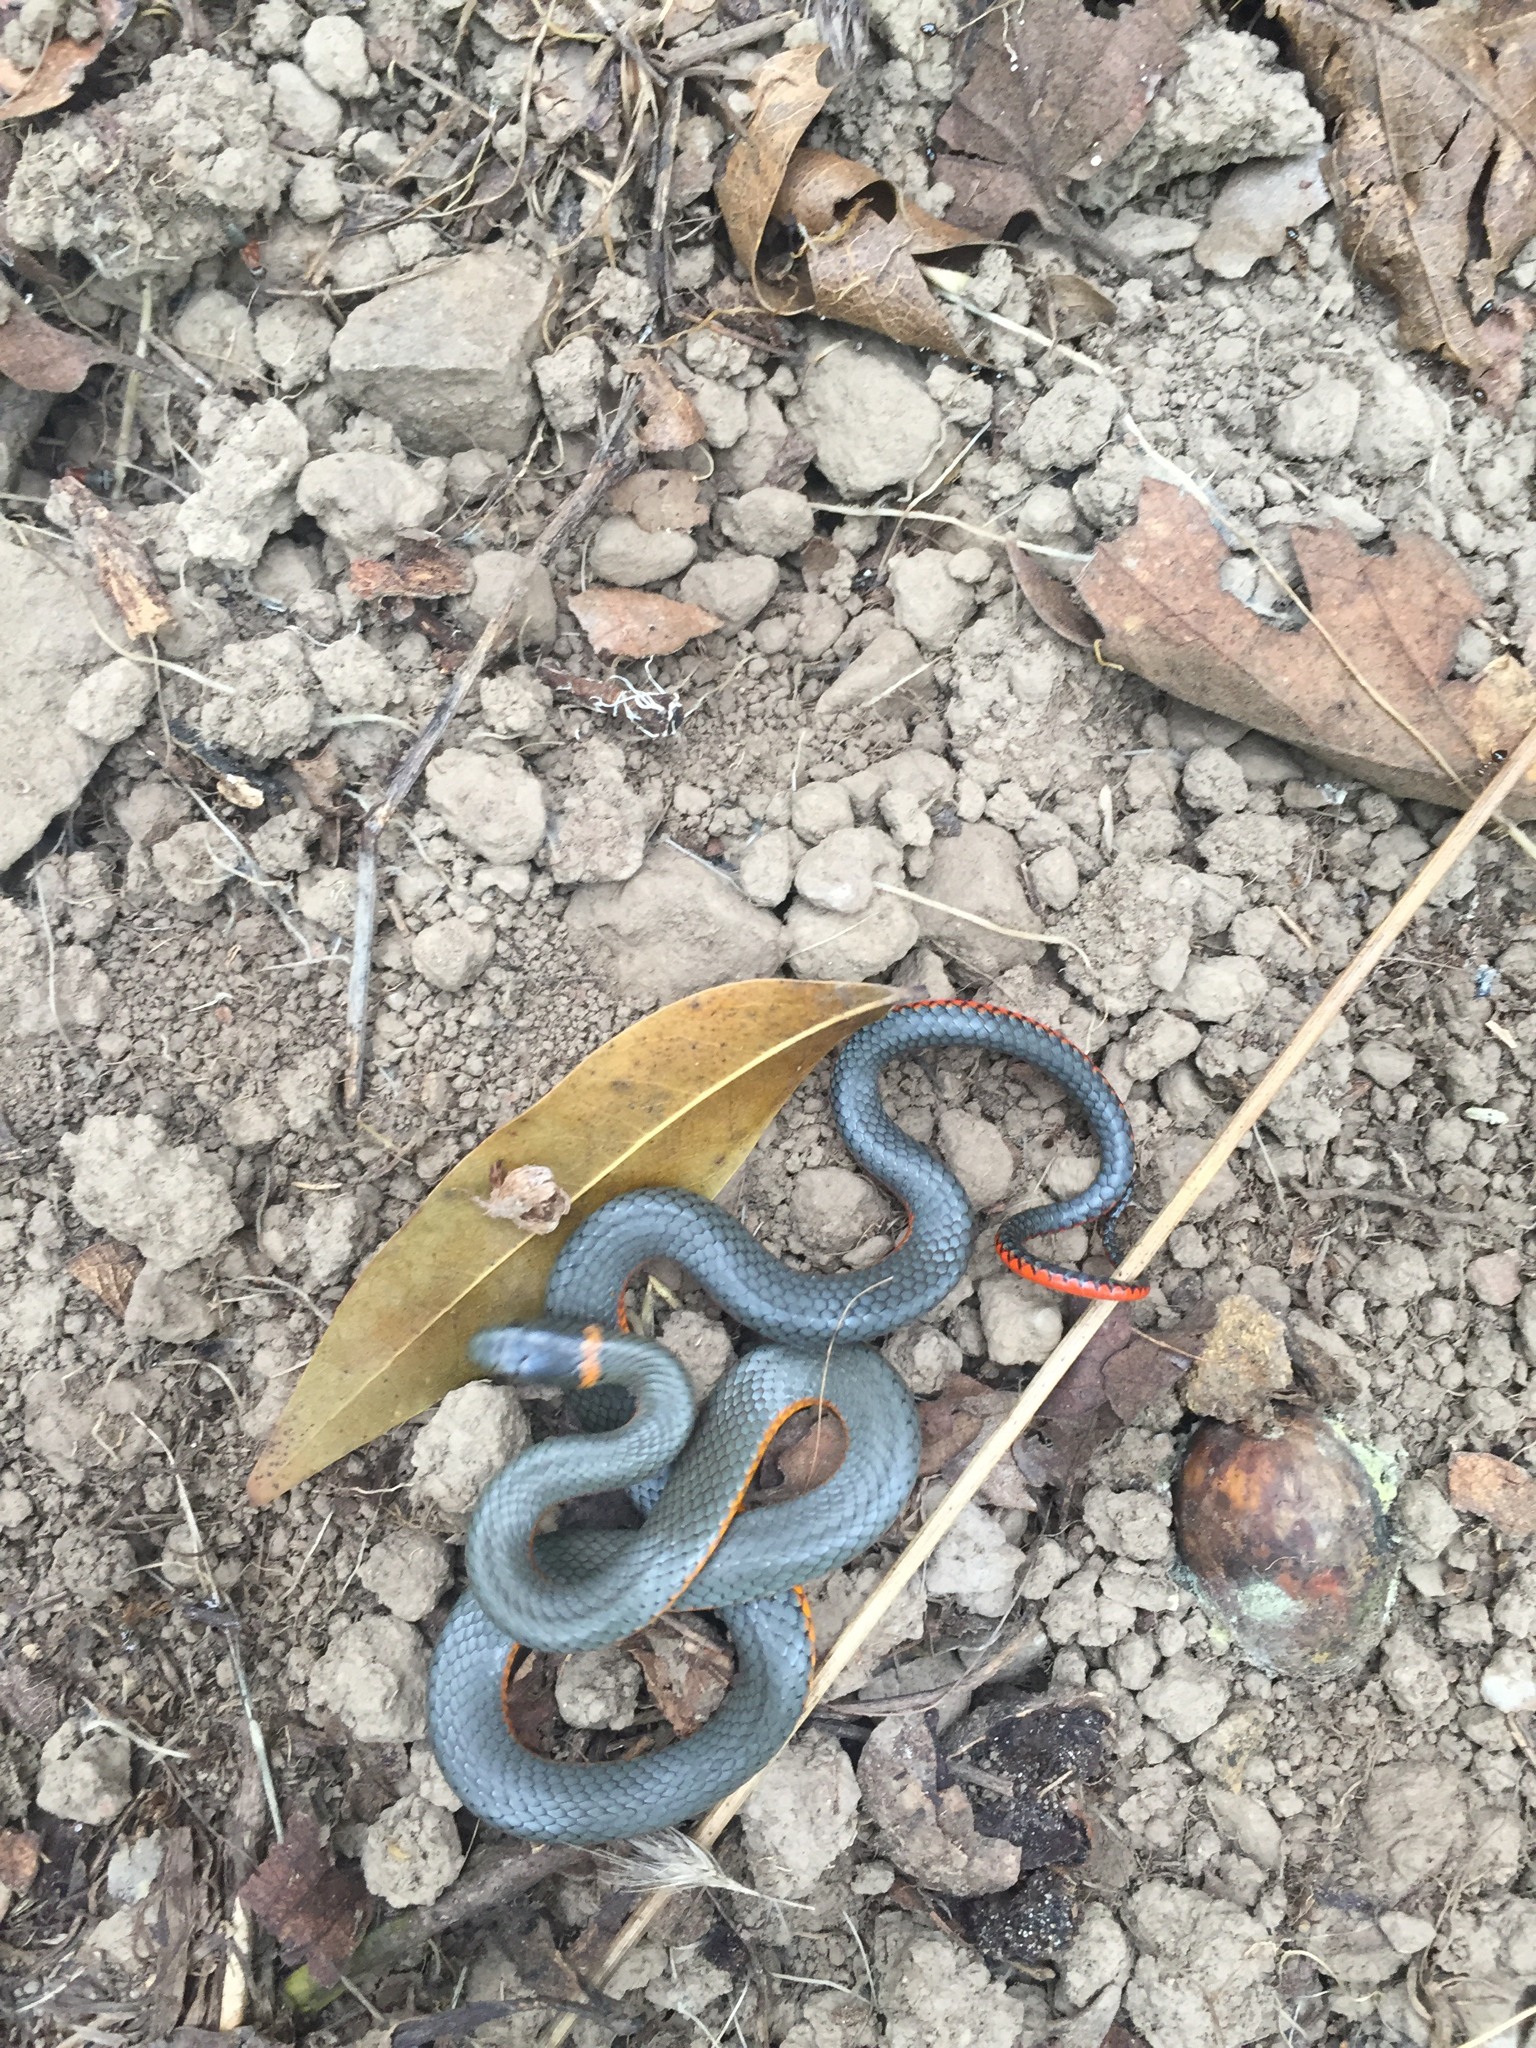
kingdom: Animalia
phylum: Chordata
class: Squamata
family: Colubridae
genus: Diadophis
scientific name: Diadophis punctatus
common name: Ringneck snake
